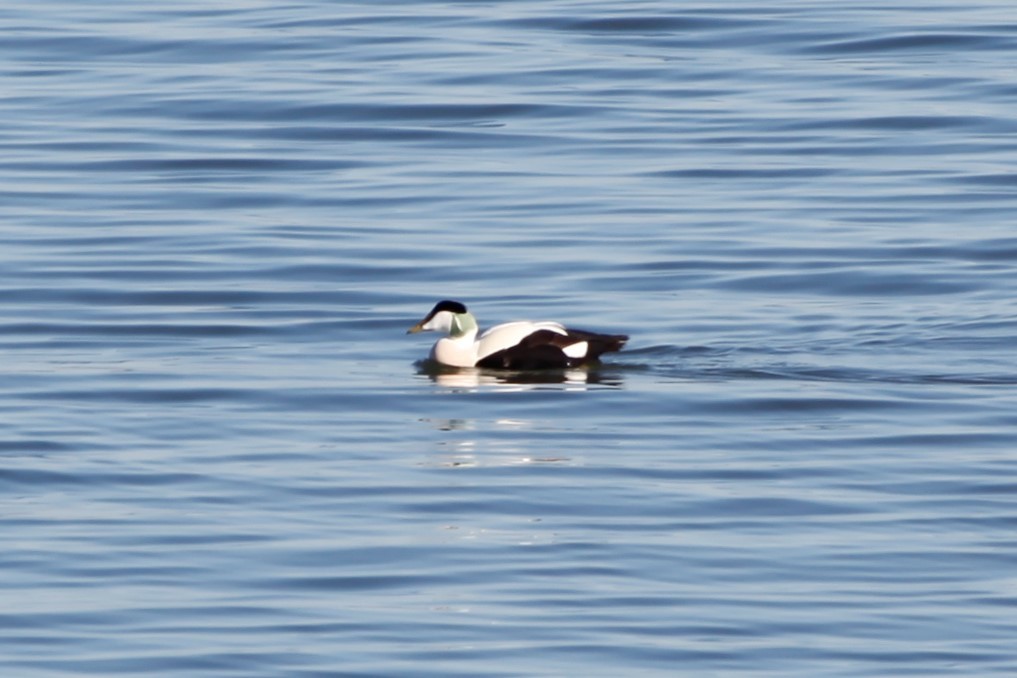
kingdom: Animalia
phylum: Chordata
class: Aves
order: Anseriformes
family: Anatidae
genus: Somateria
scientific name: Somateria mollissima
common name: Common eider
